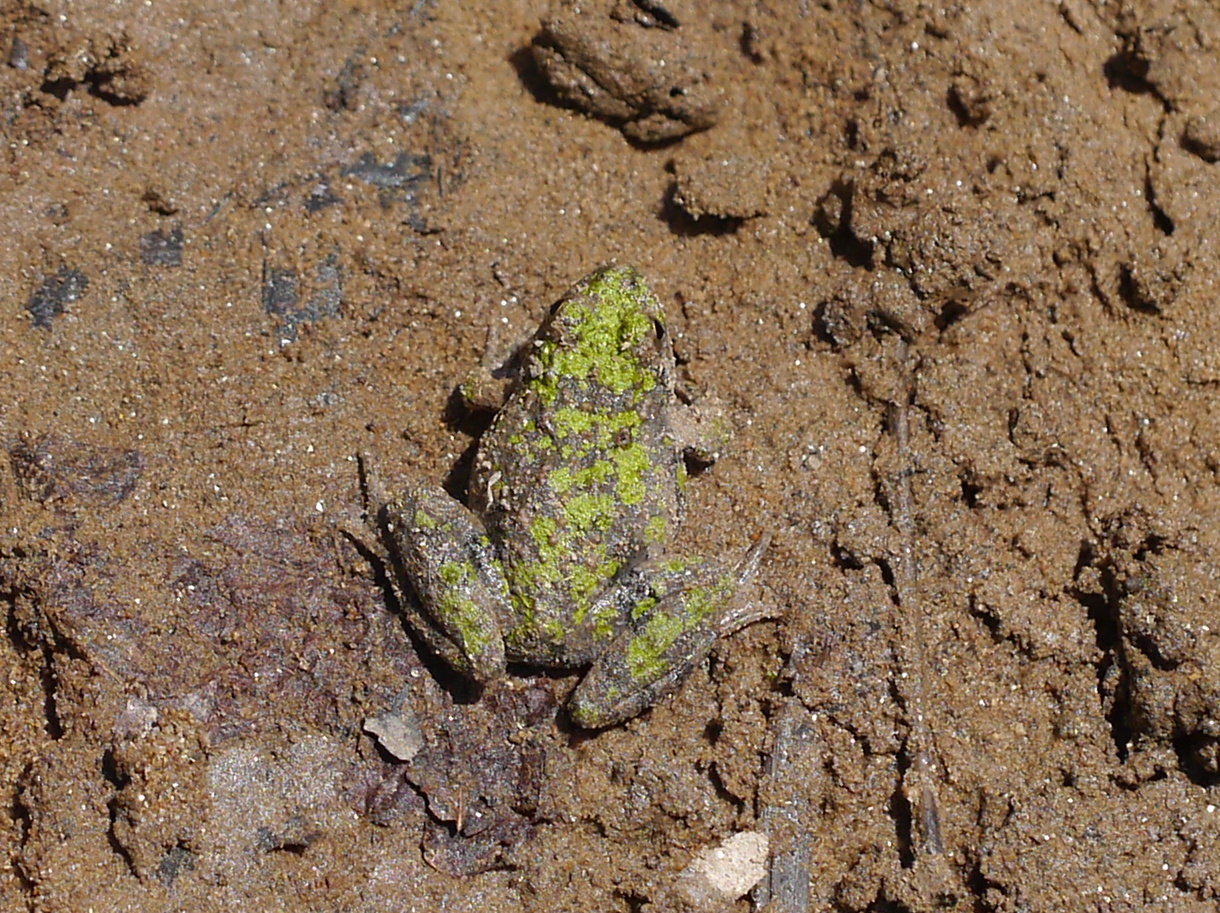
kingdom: Animalia
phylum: Chordata
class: Amphibia
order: Anura
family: Hylidae
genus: Acris
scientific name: Acris crepitans
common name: Northern cricket frog
